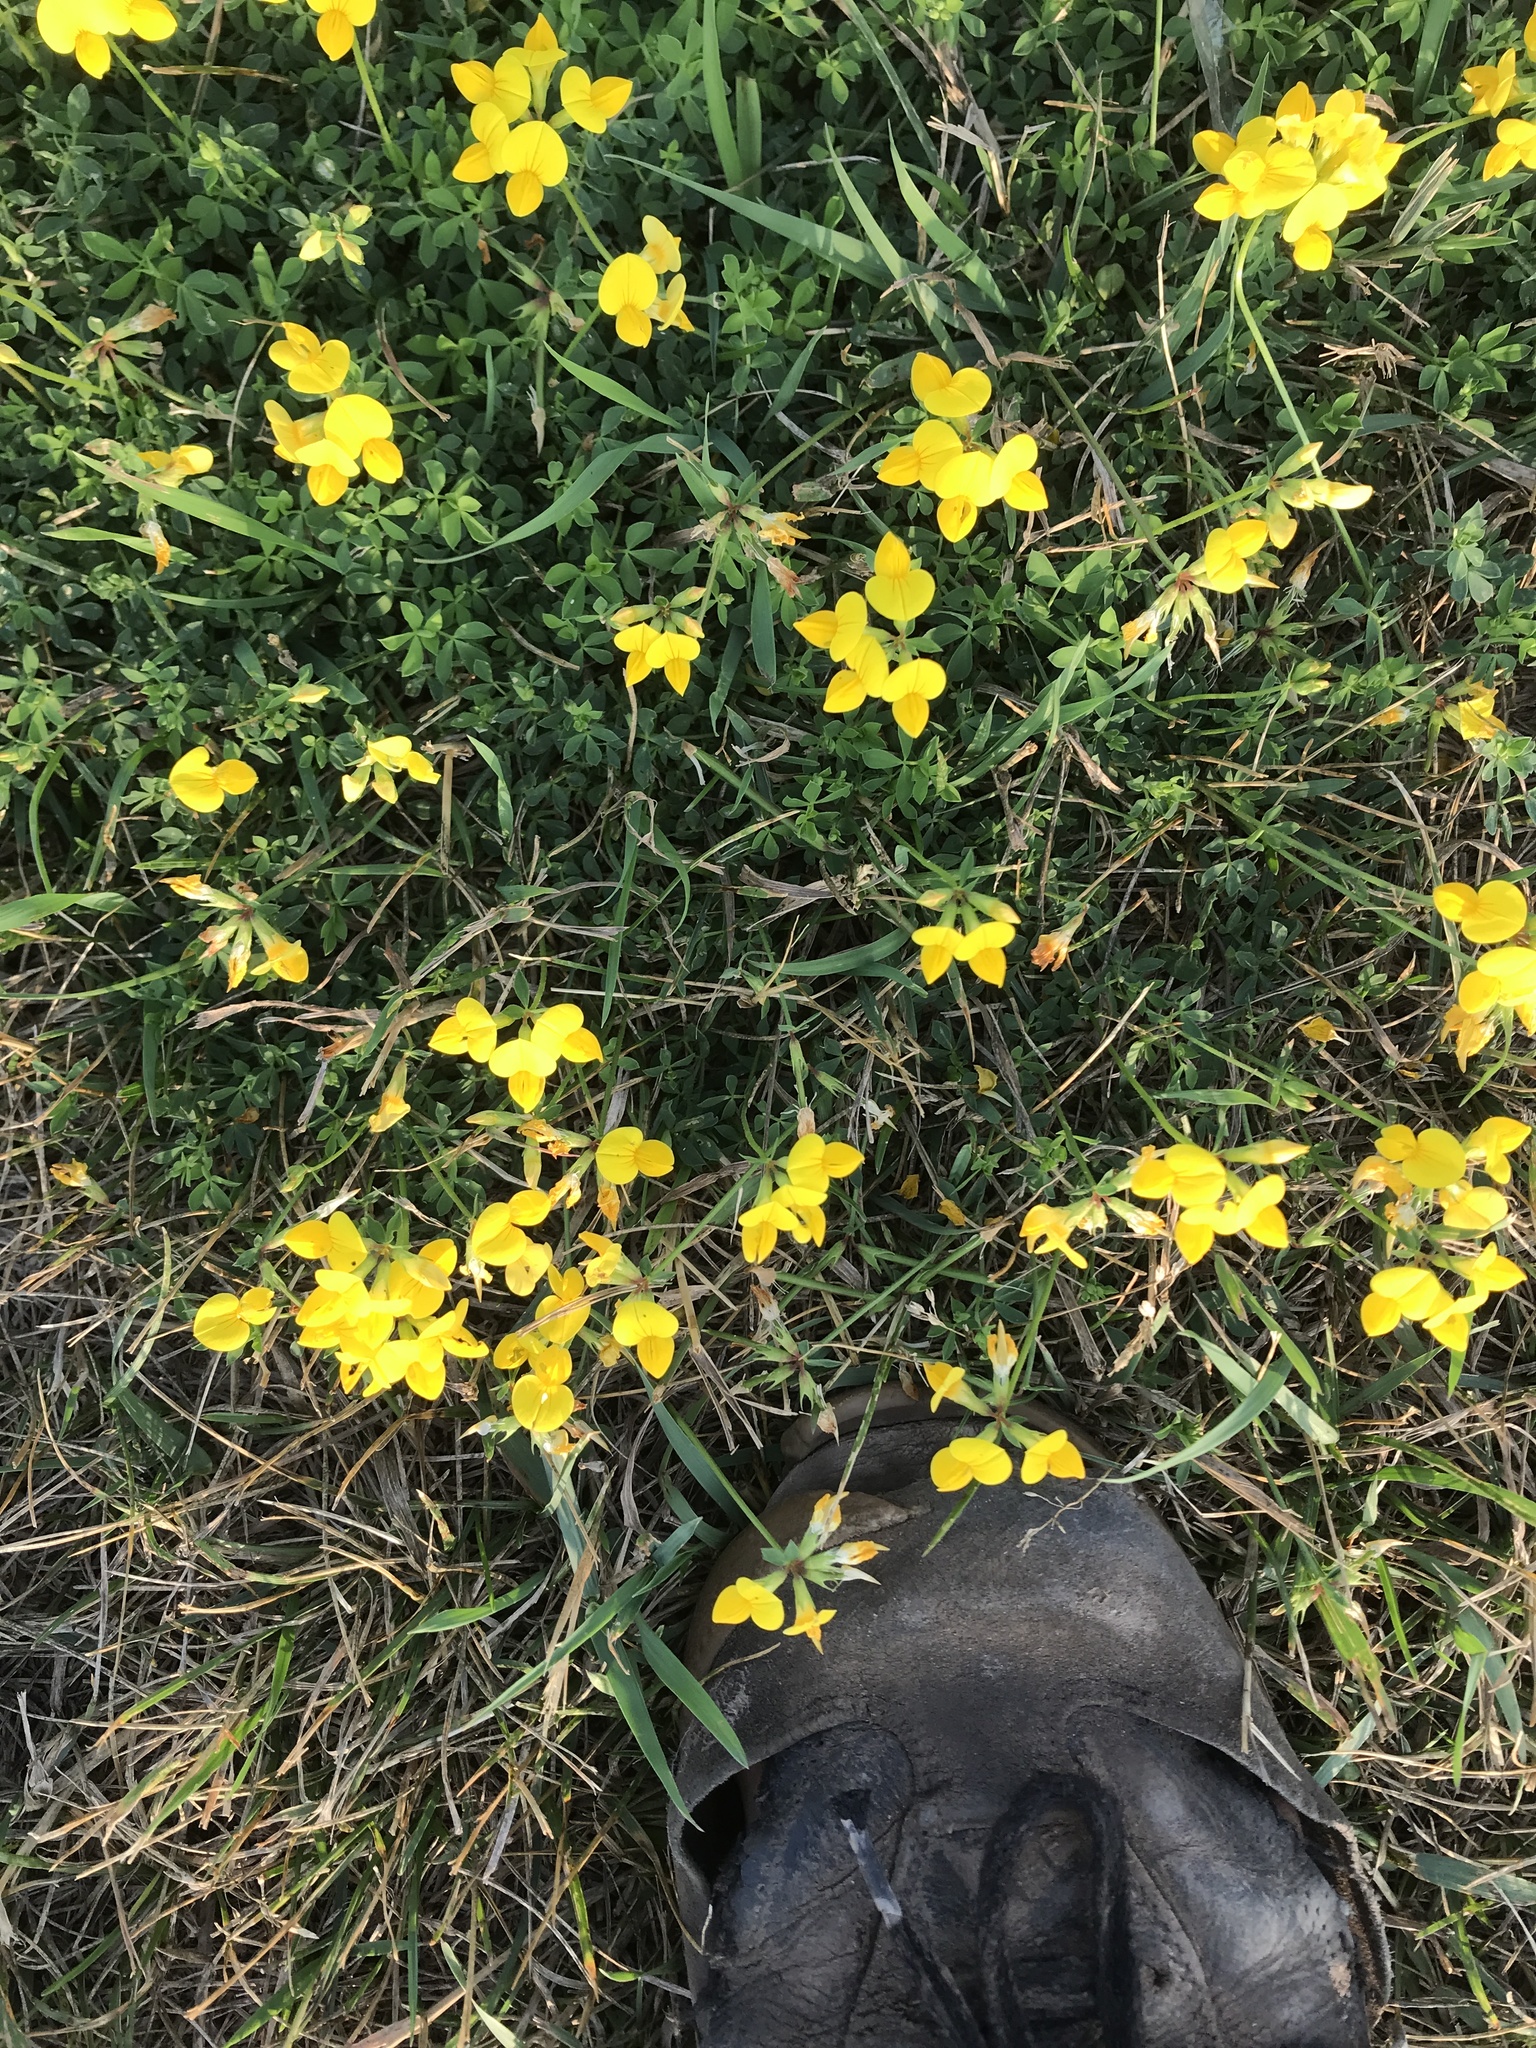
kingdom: Plantae
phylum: Tracheophyta
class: Magnoliopsida
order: Fabales
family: Fabaceae
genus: Lotus
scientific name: Lotus corniculatus
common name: Common bird's-foot-trefoil
